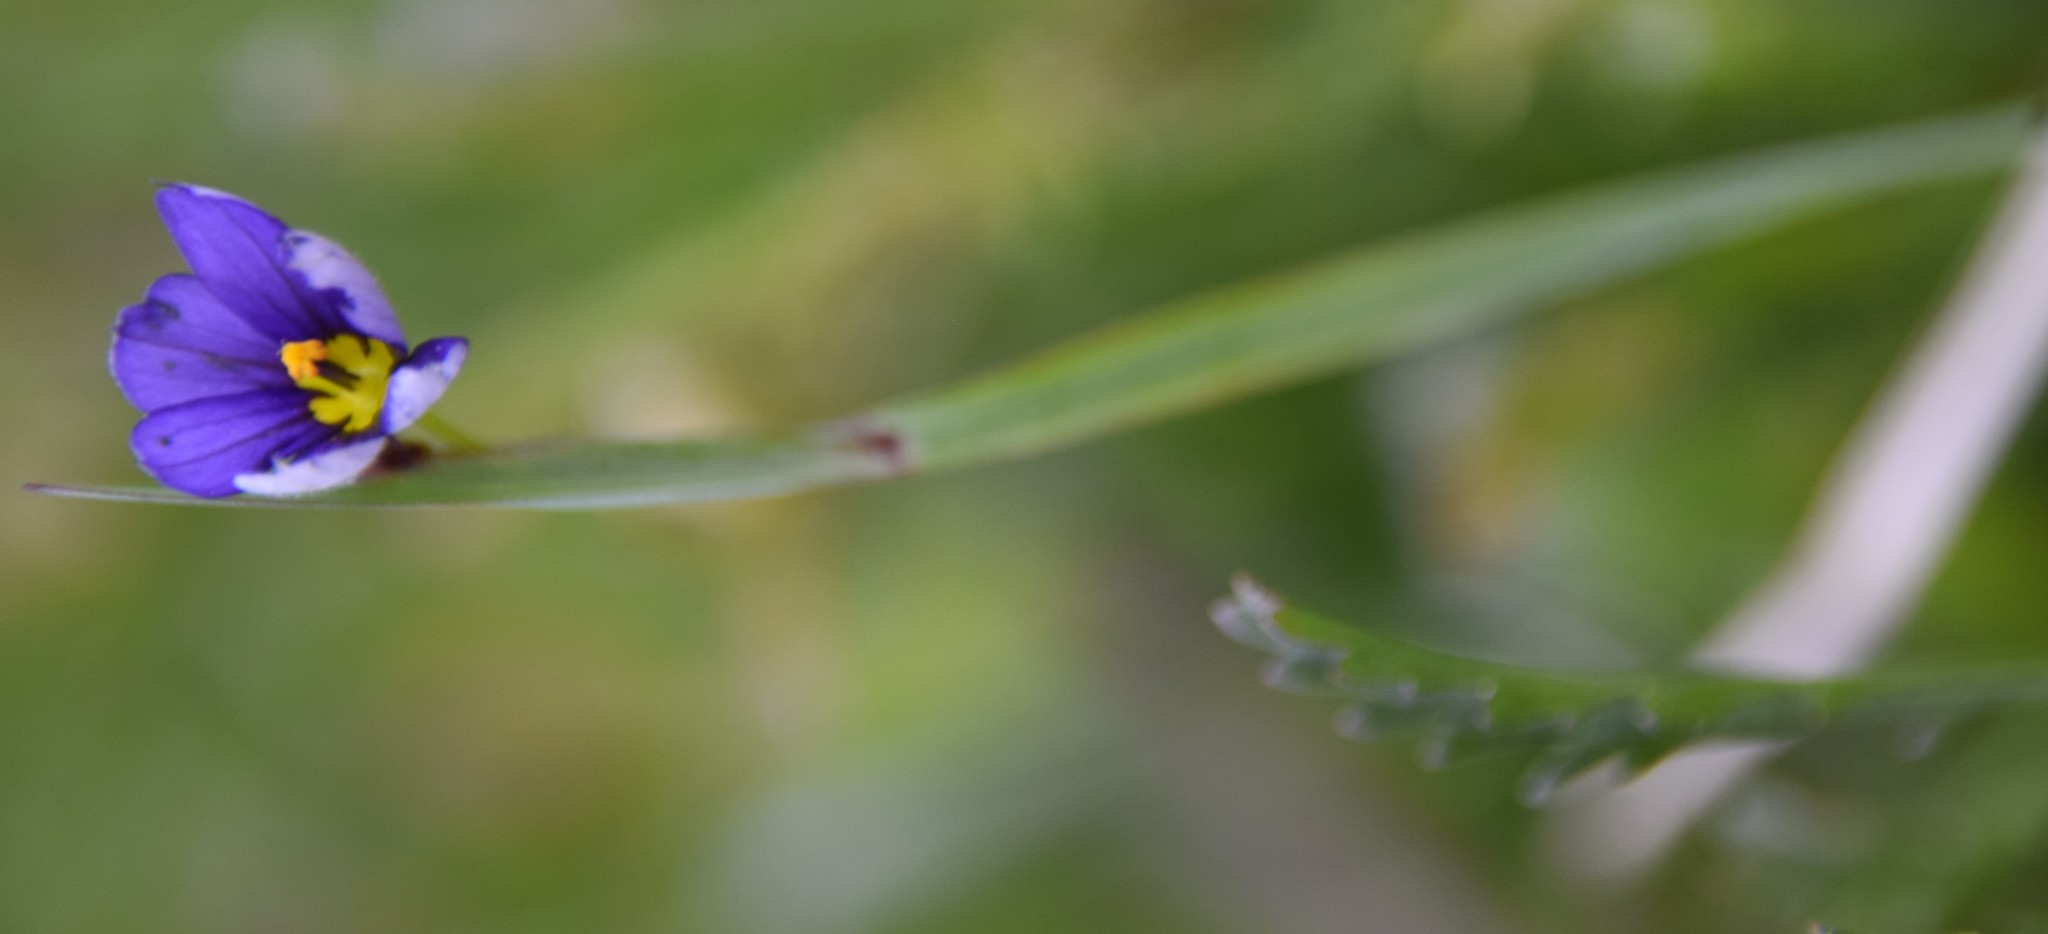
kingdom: Plantae
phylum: Tracheophyta
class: Liliopsida
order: Asparagales
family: Iridaceae
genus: Sisyrinchium
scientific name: Sisyrinchium montanum
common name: American blue-eyed-grass
